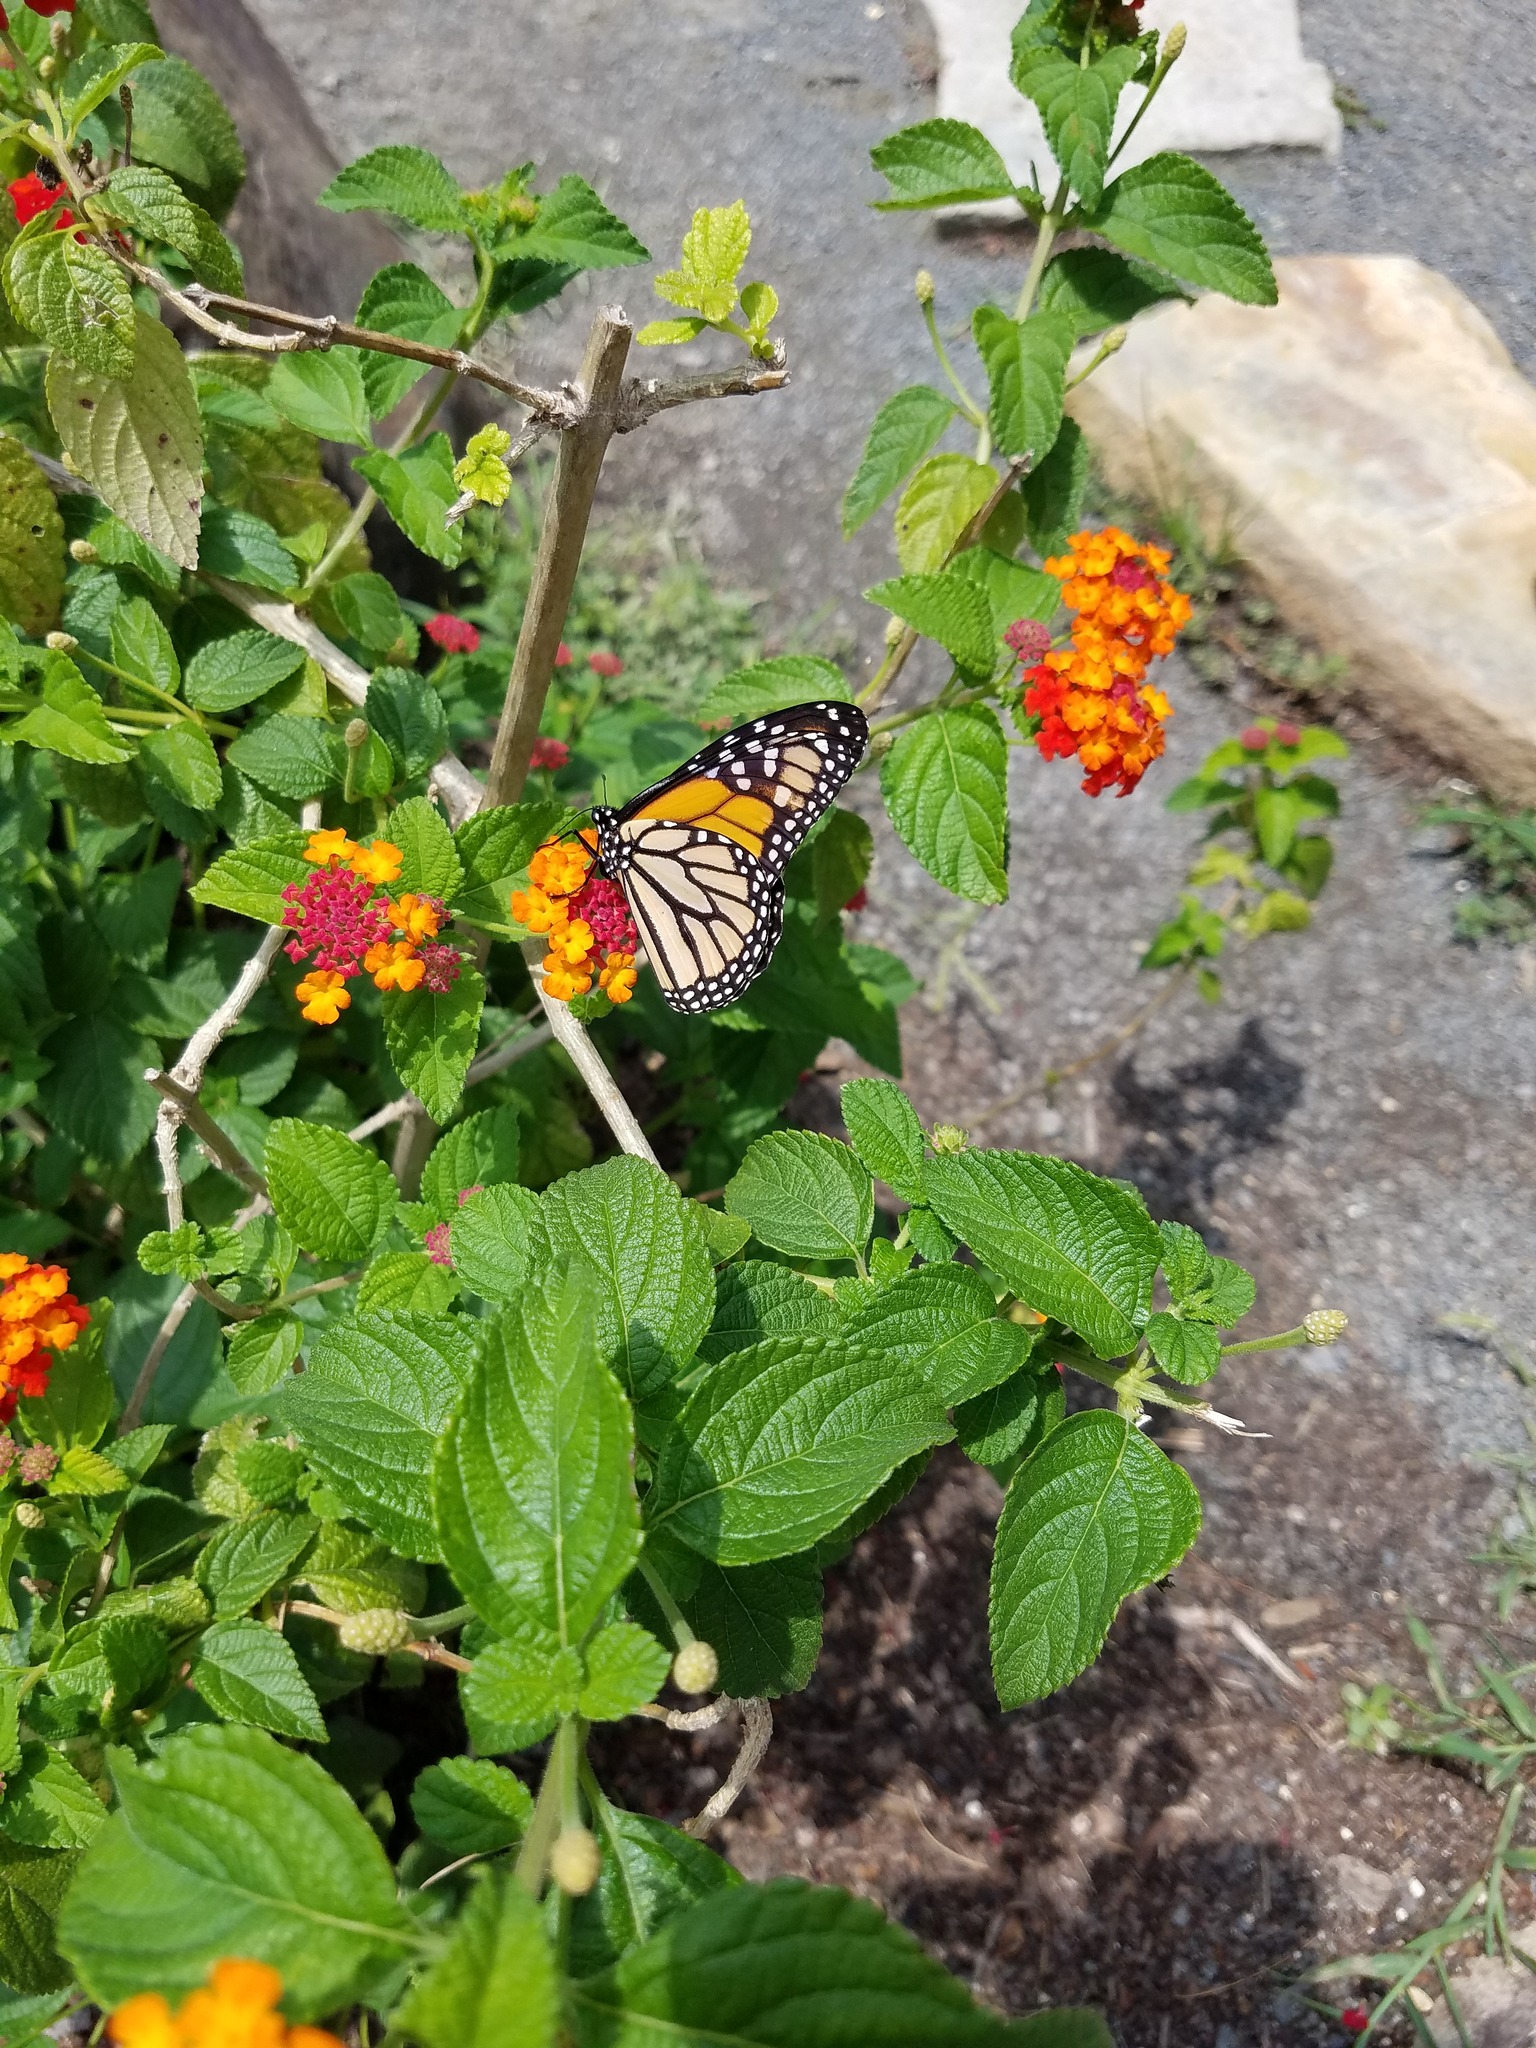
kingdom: Animalia
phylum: Arthropoda
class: Insecta
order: Lepidoptera
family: Nymphalidae
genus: Danaus
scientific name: Danaus plexippus
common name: Monarch
